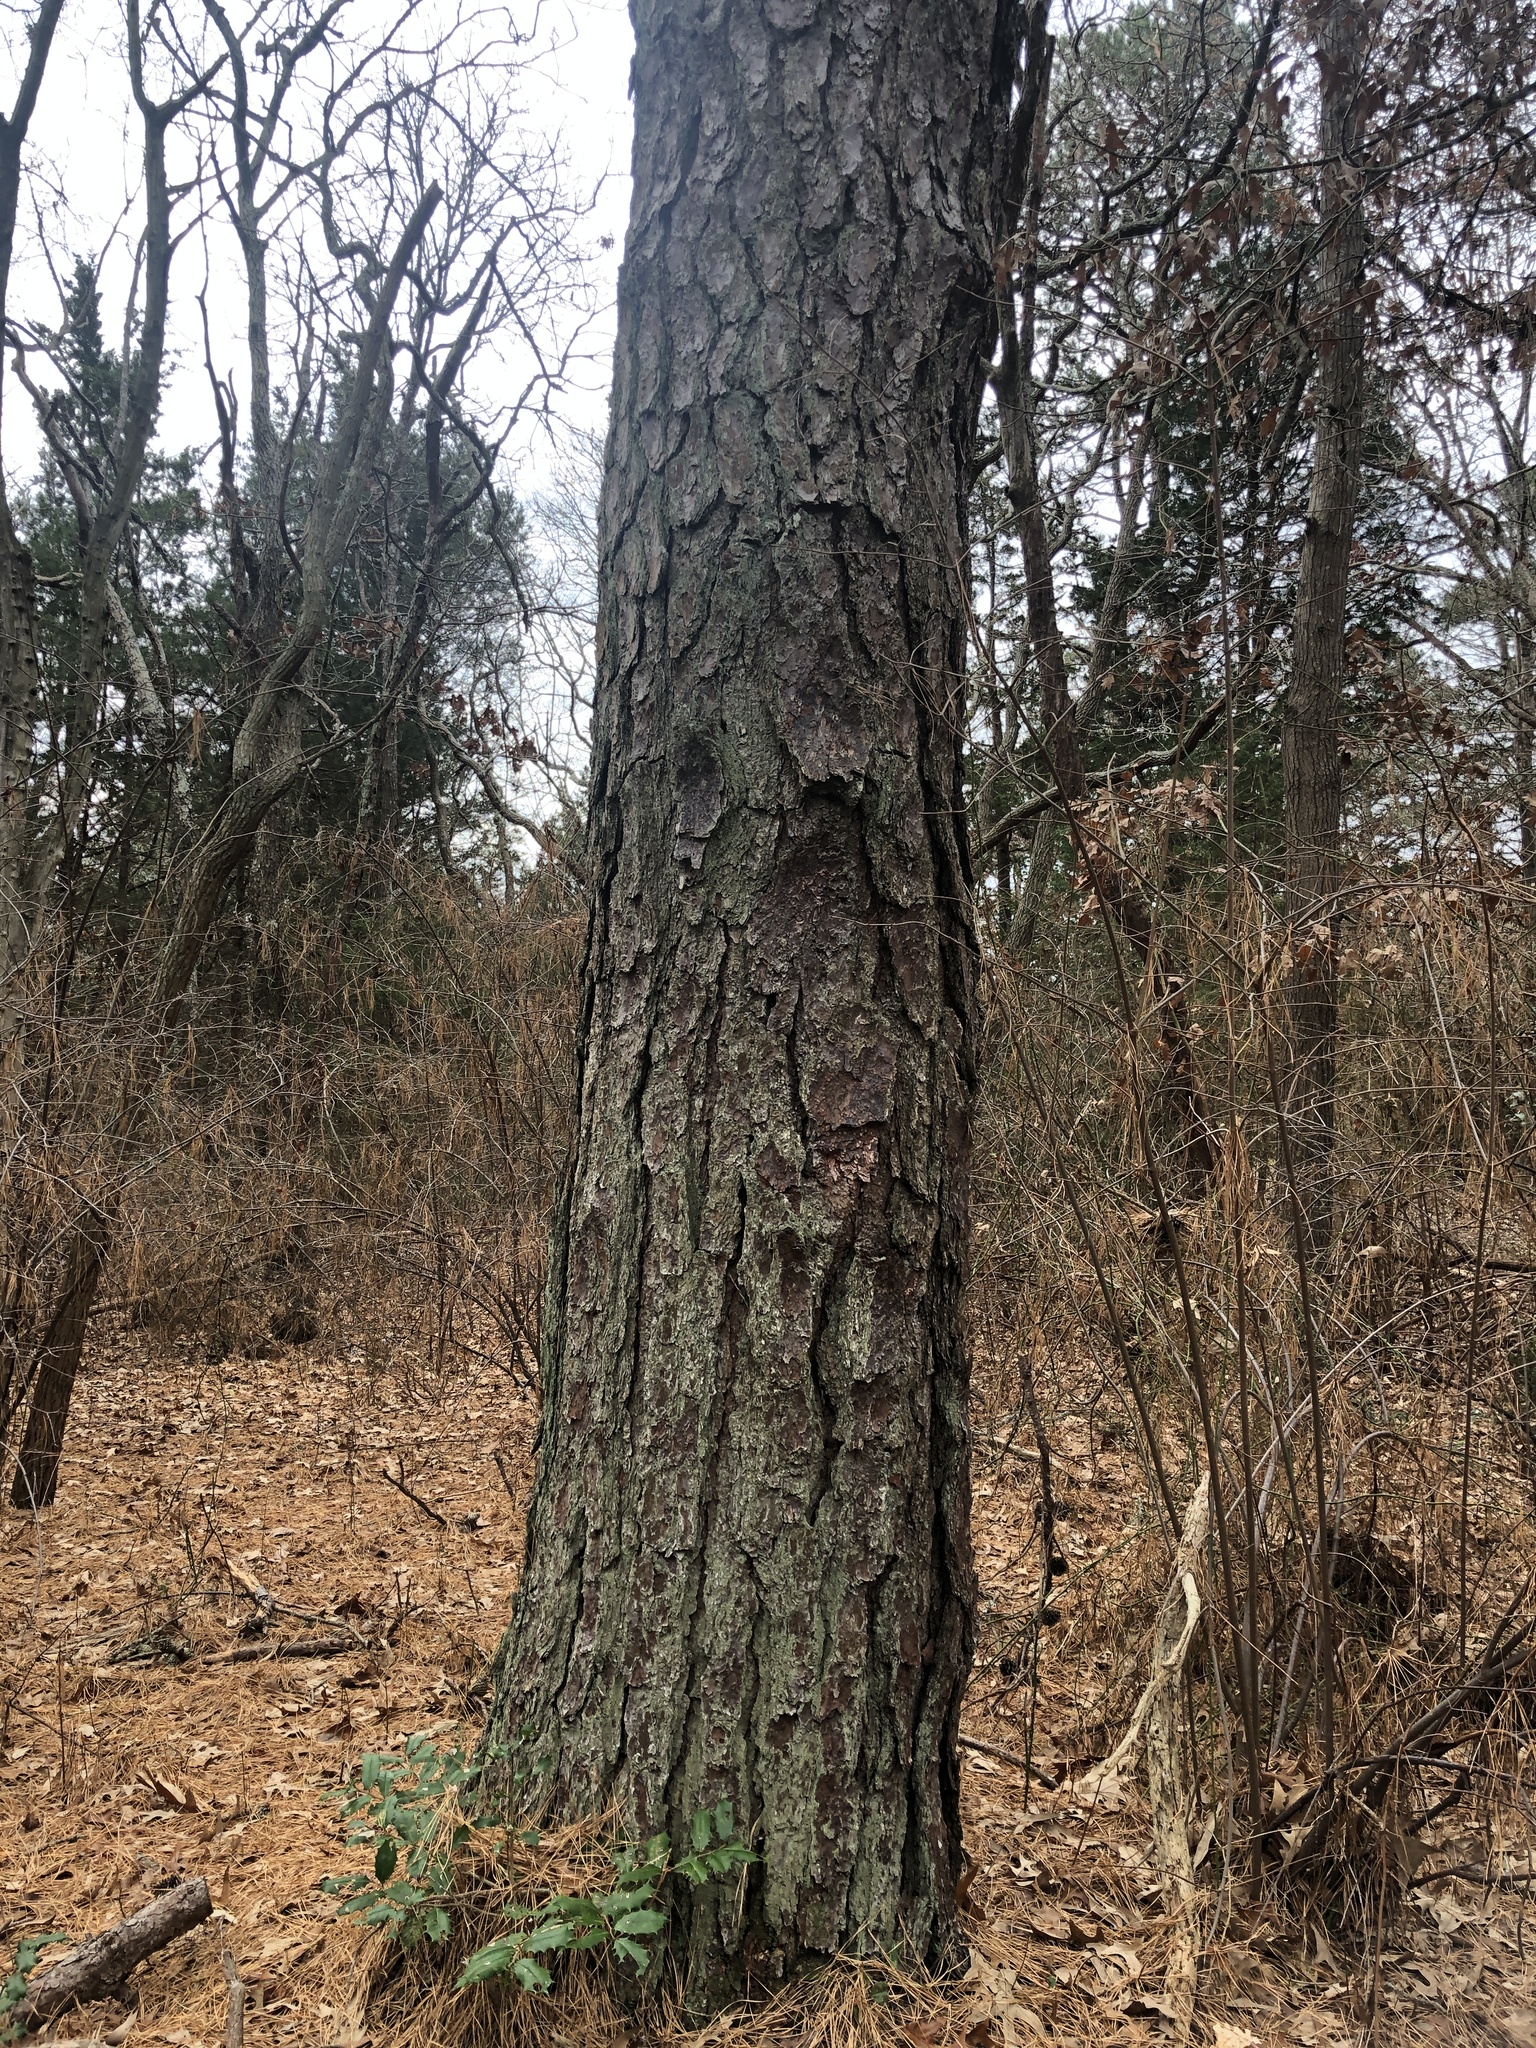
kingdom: Plantae
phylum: Tracheophyta
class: Pinopsida
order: Pinales
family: Pinaceae
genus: Pinus
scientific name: Pinus rigida
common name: Pitch pine
